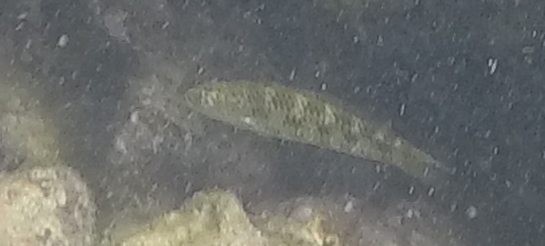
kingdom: Animalia
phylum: Chordata
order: Perciformes
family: Labridae
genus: Thalassoma
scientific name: Thalassoma
